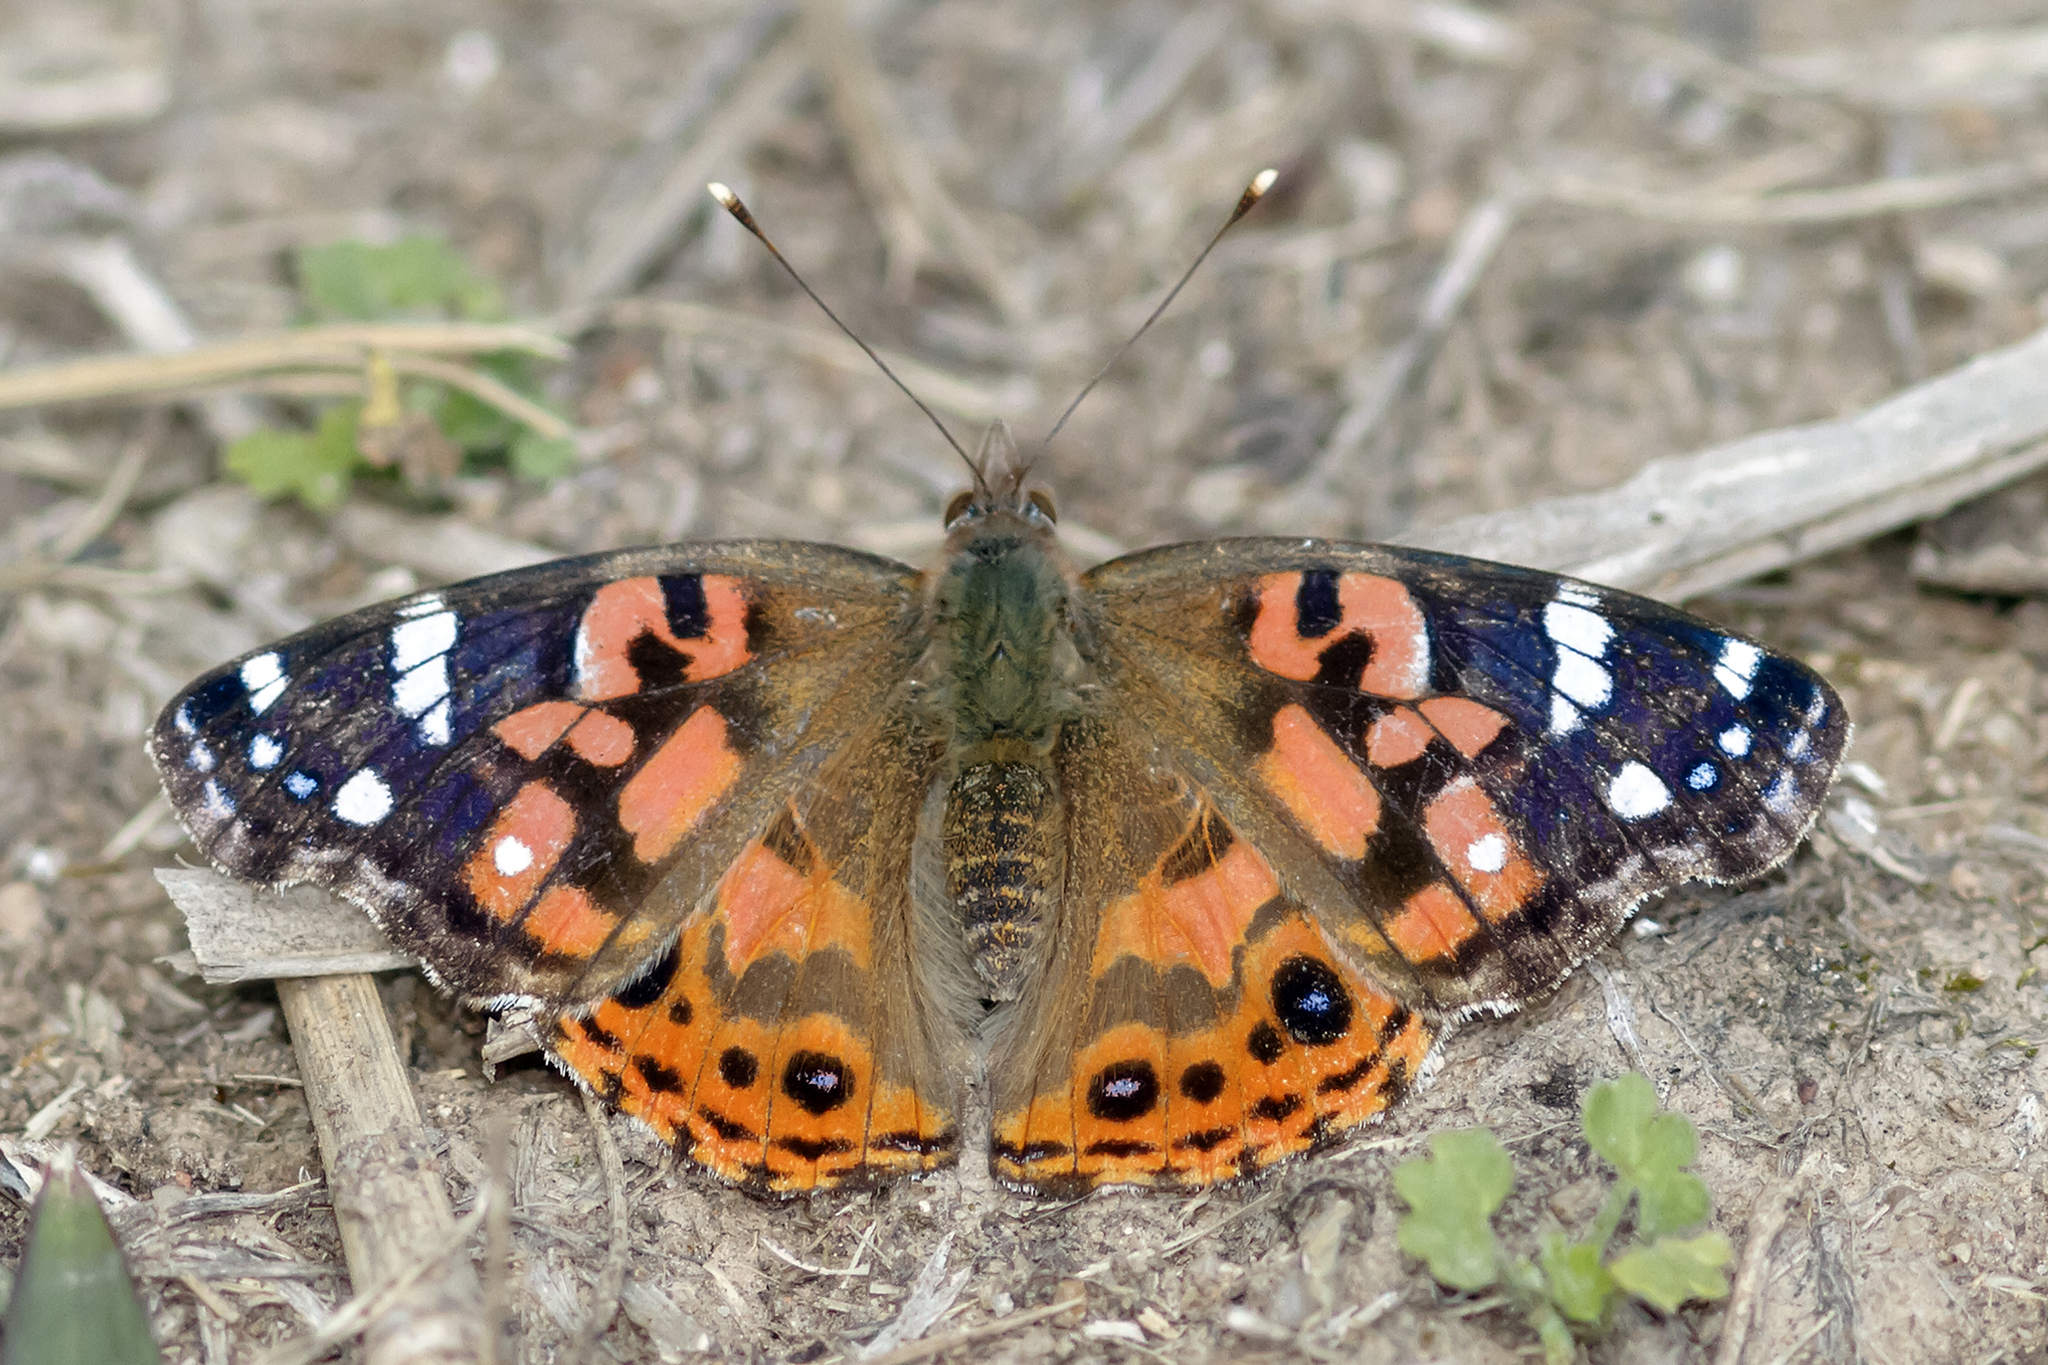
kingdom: Animalia
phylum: Arthropoda
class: Insecta
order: Lepidoptera
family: Nymphalidae
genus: Vanessa
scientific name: Vanessa braziliensis
